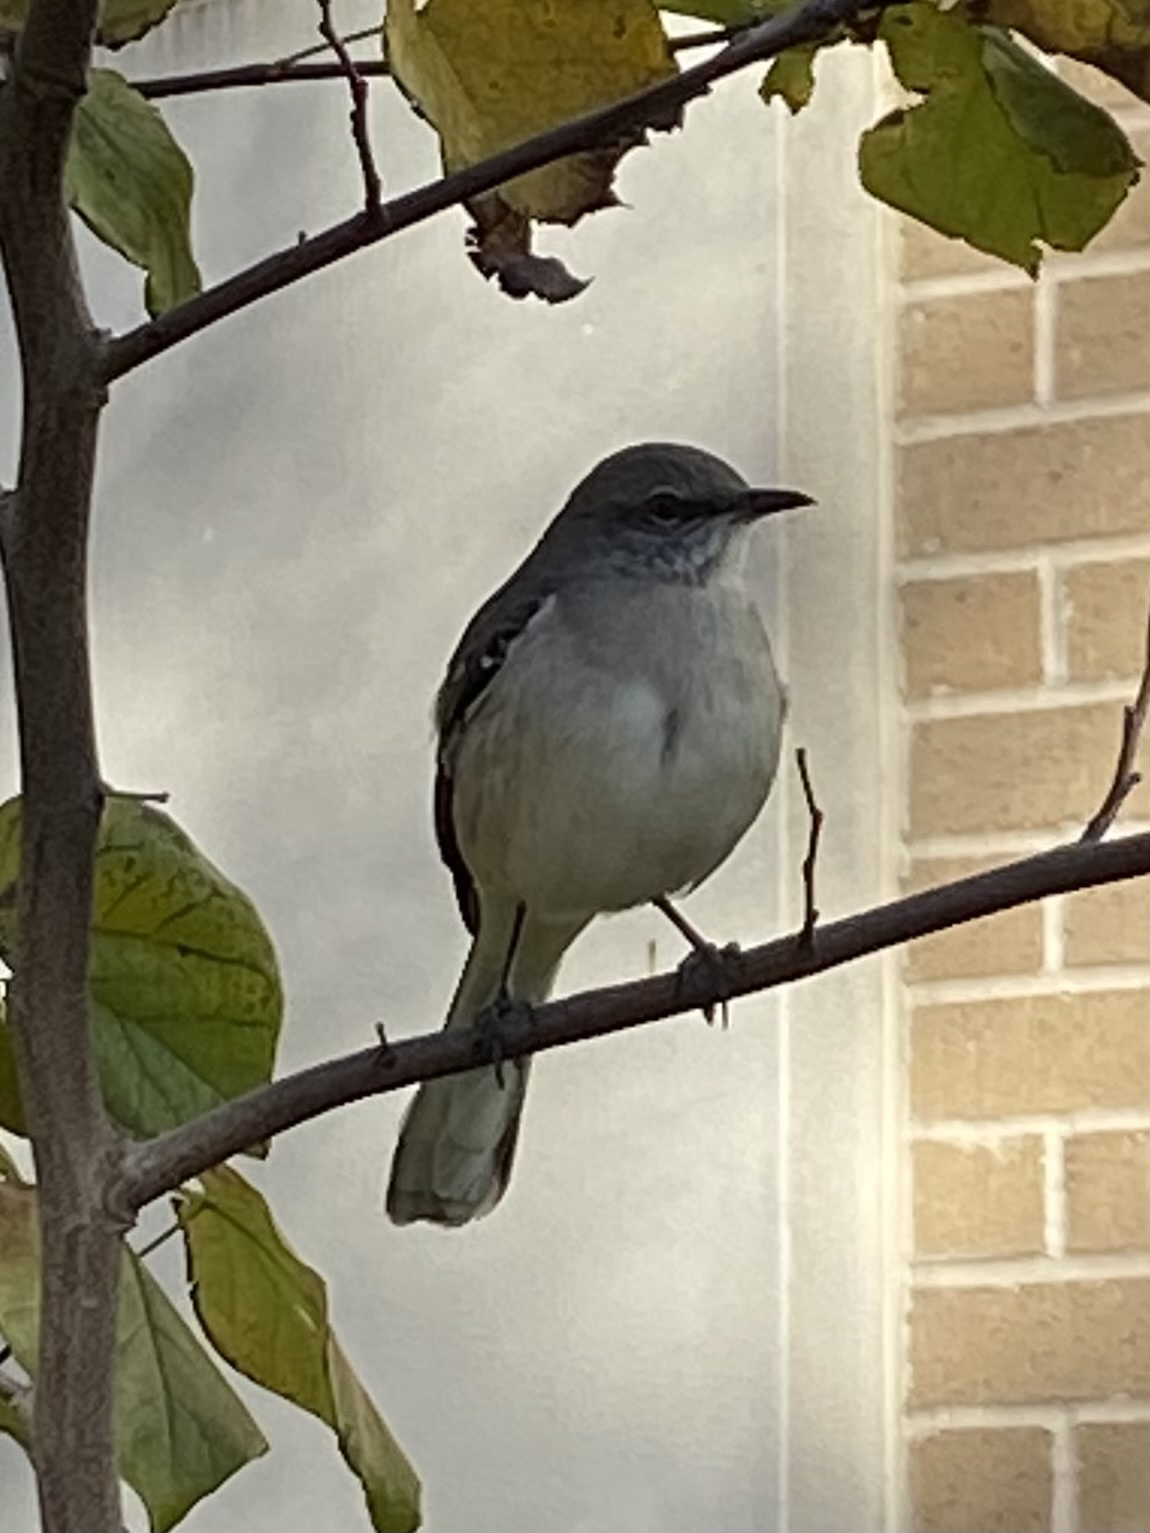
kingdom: Animalia
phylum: Chordata
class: Aves
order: Passeriformes
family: Mimidae
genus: Mimus
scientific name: Mimus polyglottos
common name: Northern mockingbird
